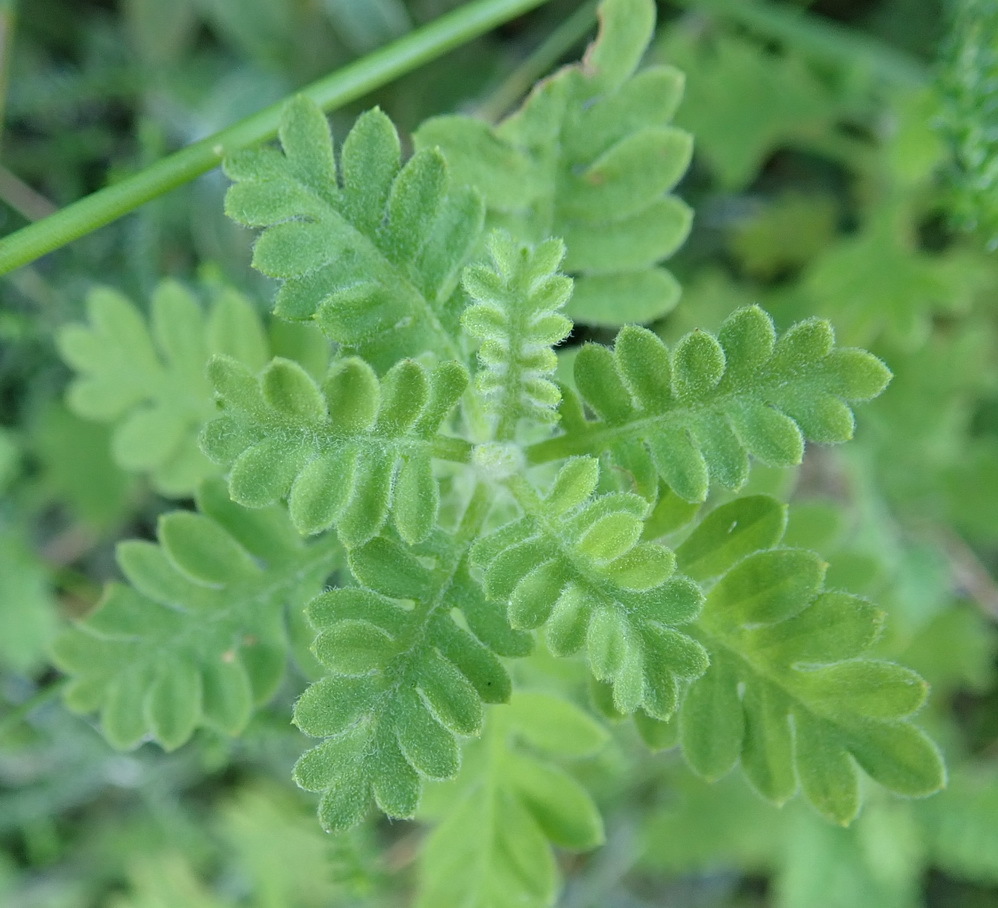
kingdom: Plantae
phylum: Tracheophyta
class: Magnoliopsida
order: Asterales
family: Asteraceae
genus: Hippia
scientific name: Hippia frutescens
